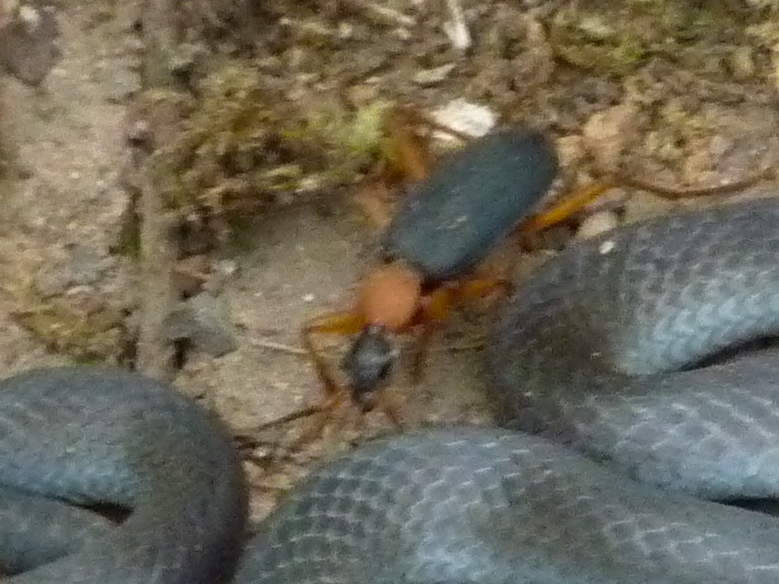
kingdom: Animalia
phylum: Arthropoda
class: Insecta
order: Coleoptera
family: Carabidae
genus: Galerita
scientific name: Galerita bicolor
